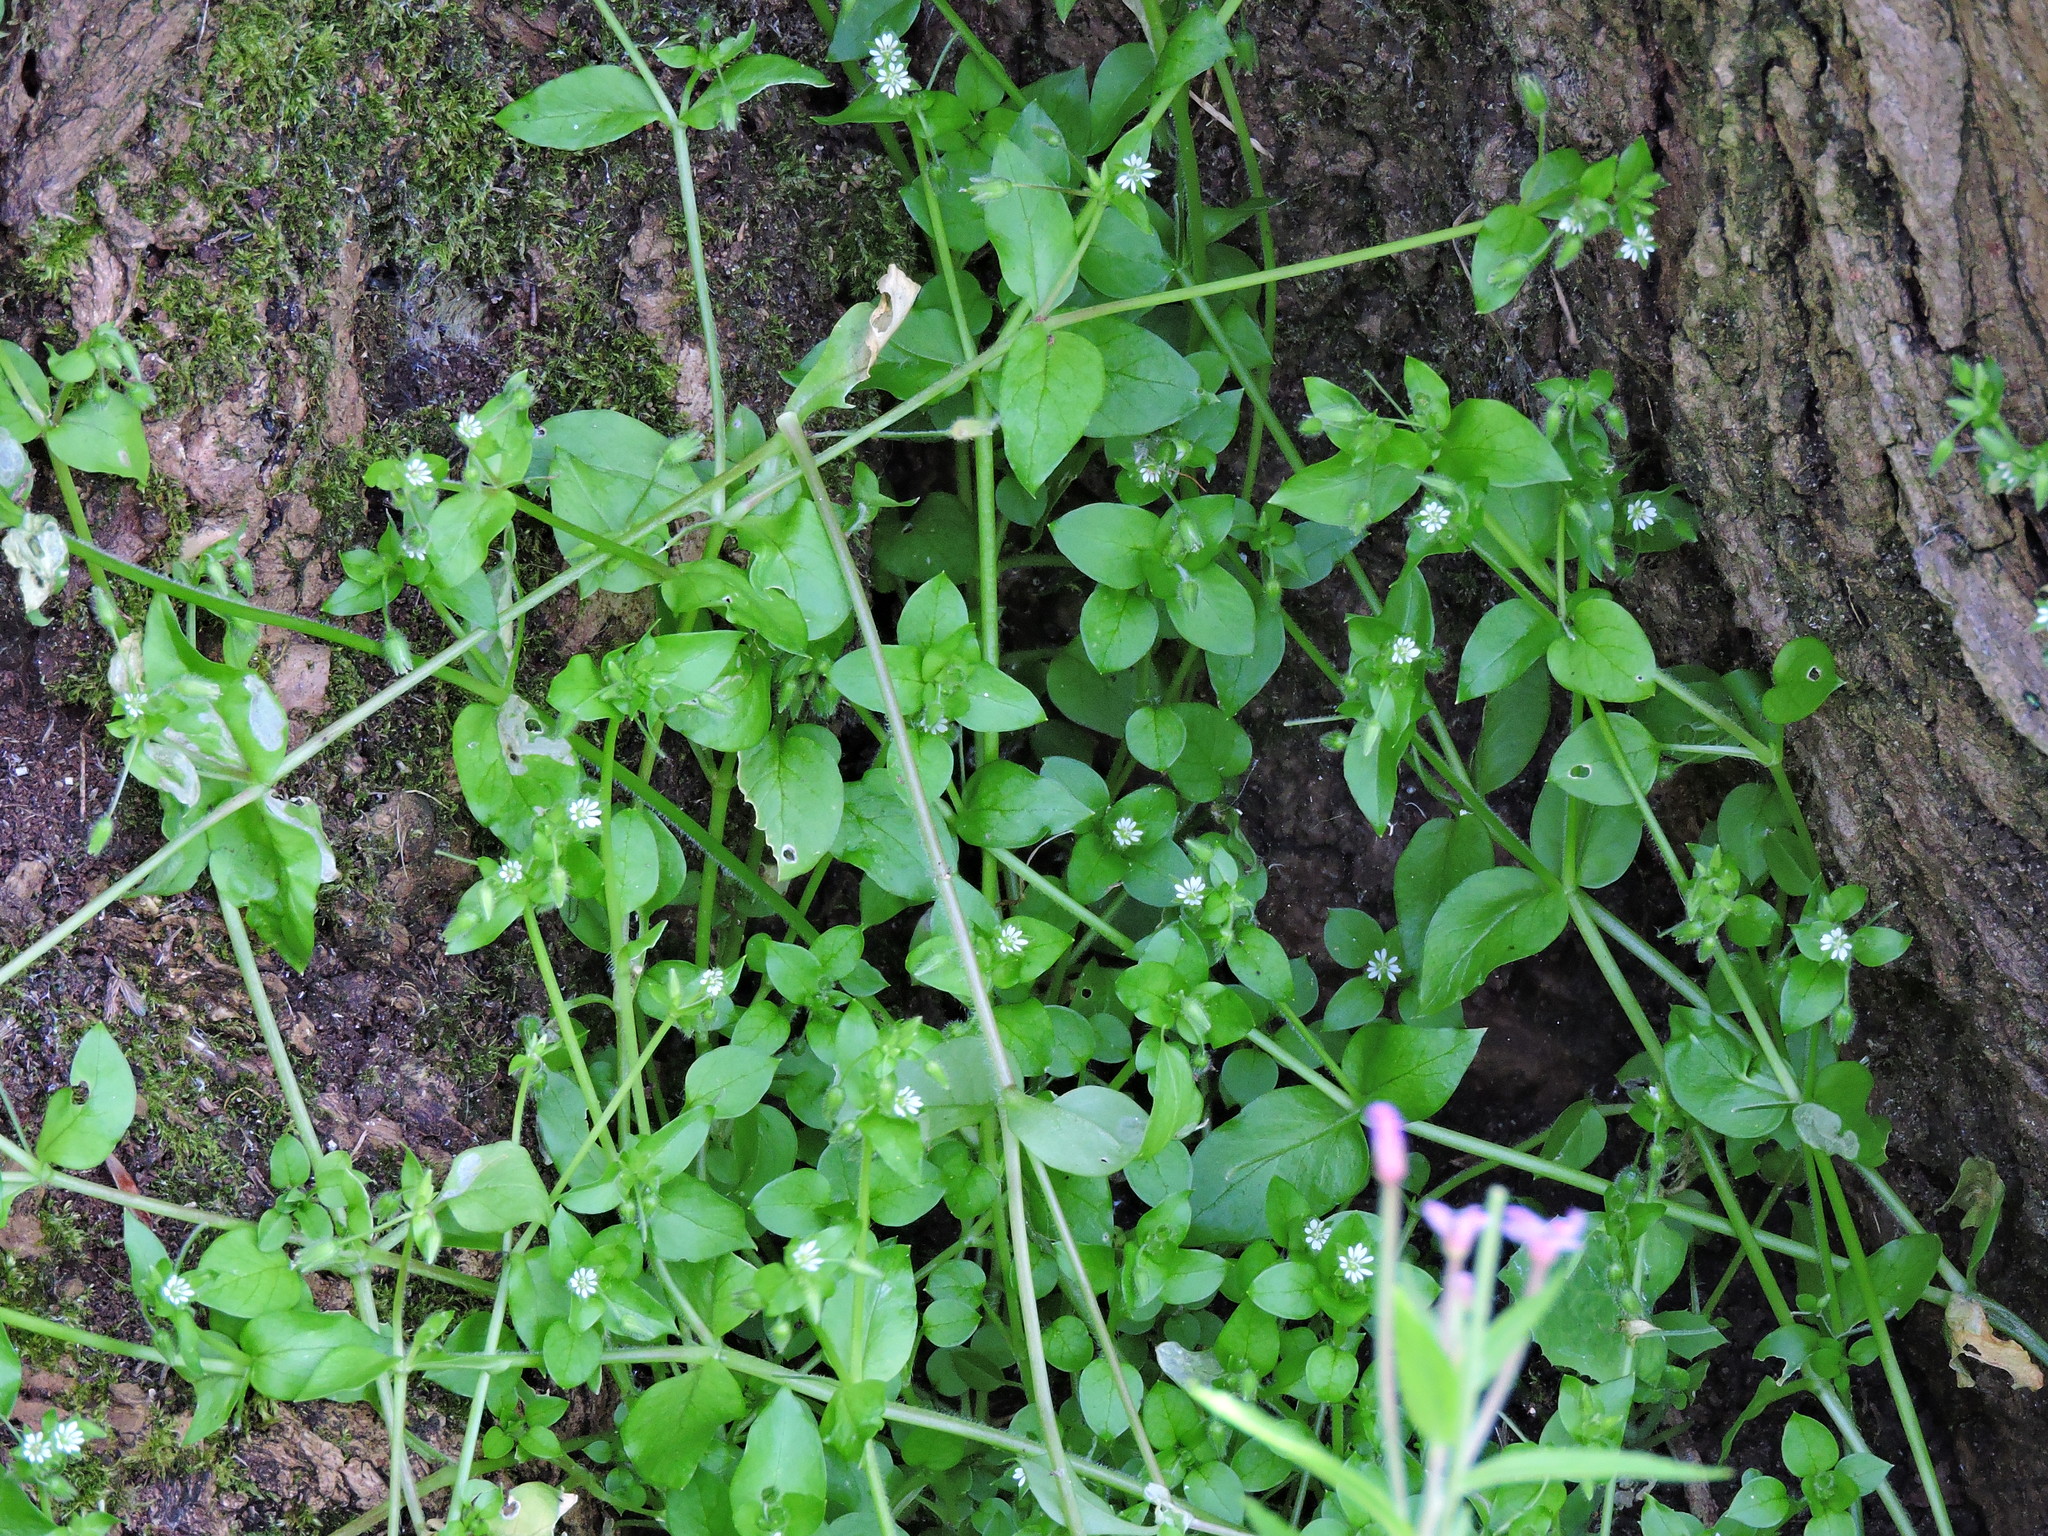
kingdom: Plantae
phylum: Tracheophyta
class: Magnoliopsida
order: Caryophyllales
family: Caryophyllaceae
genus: Stellaria
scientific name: Stellaria media
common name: Common chickweed
